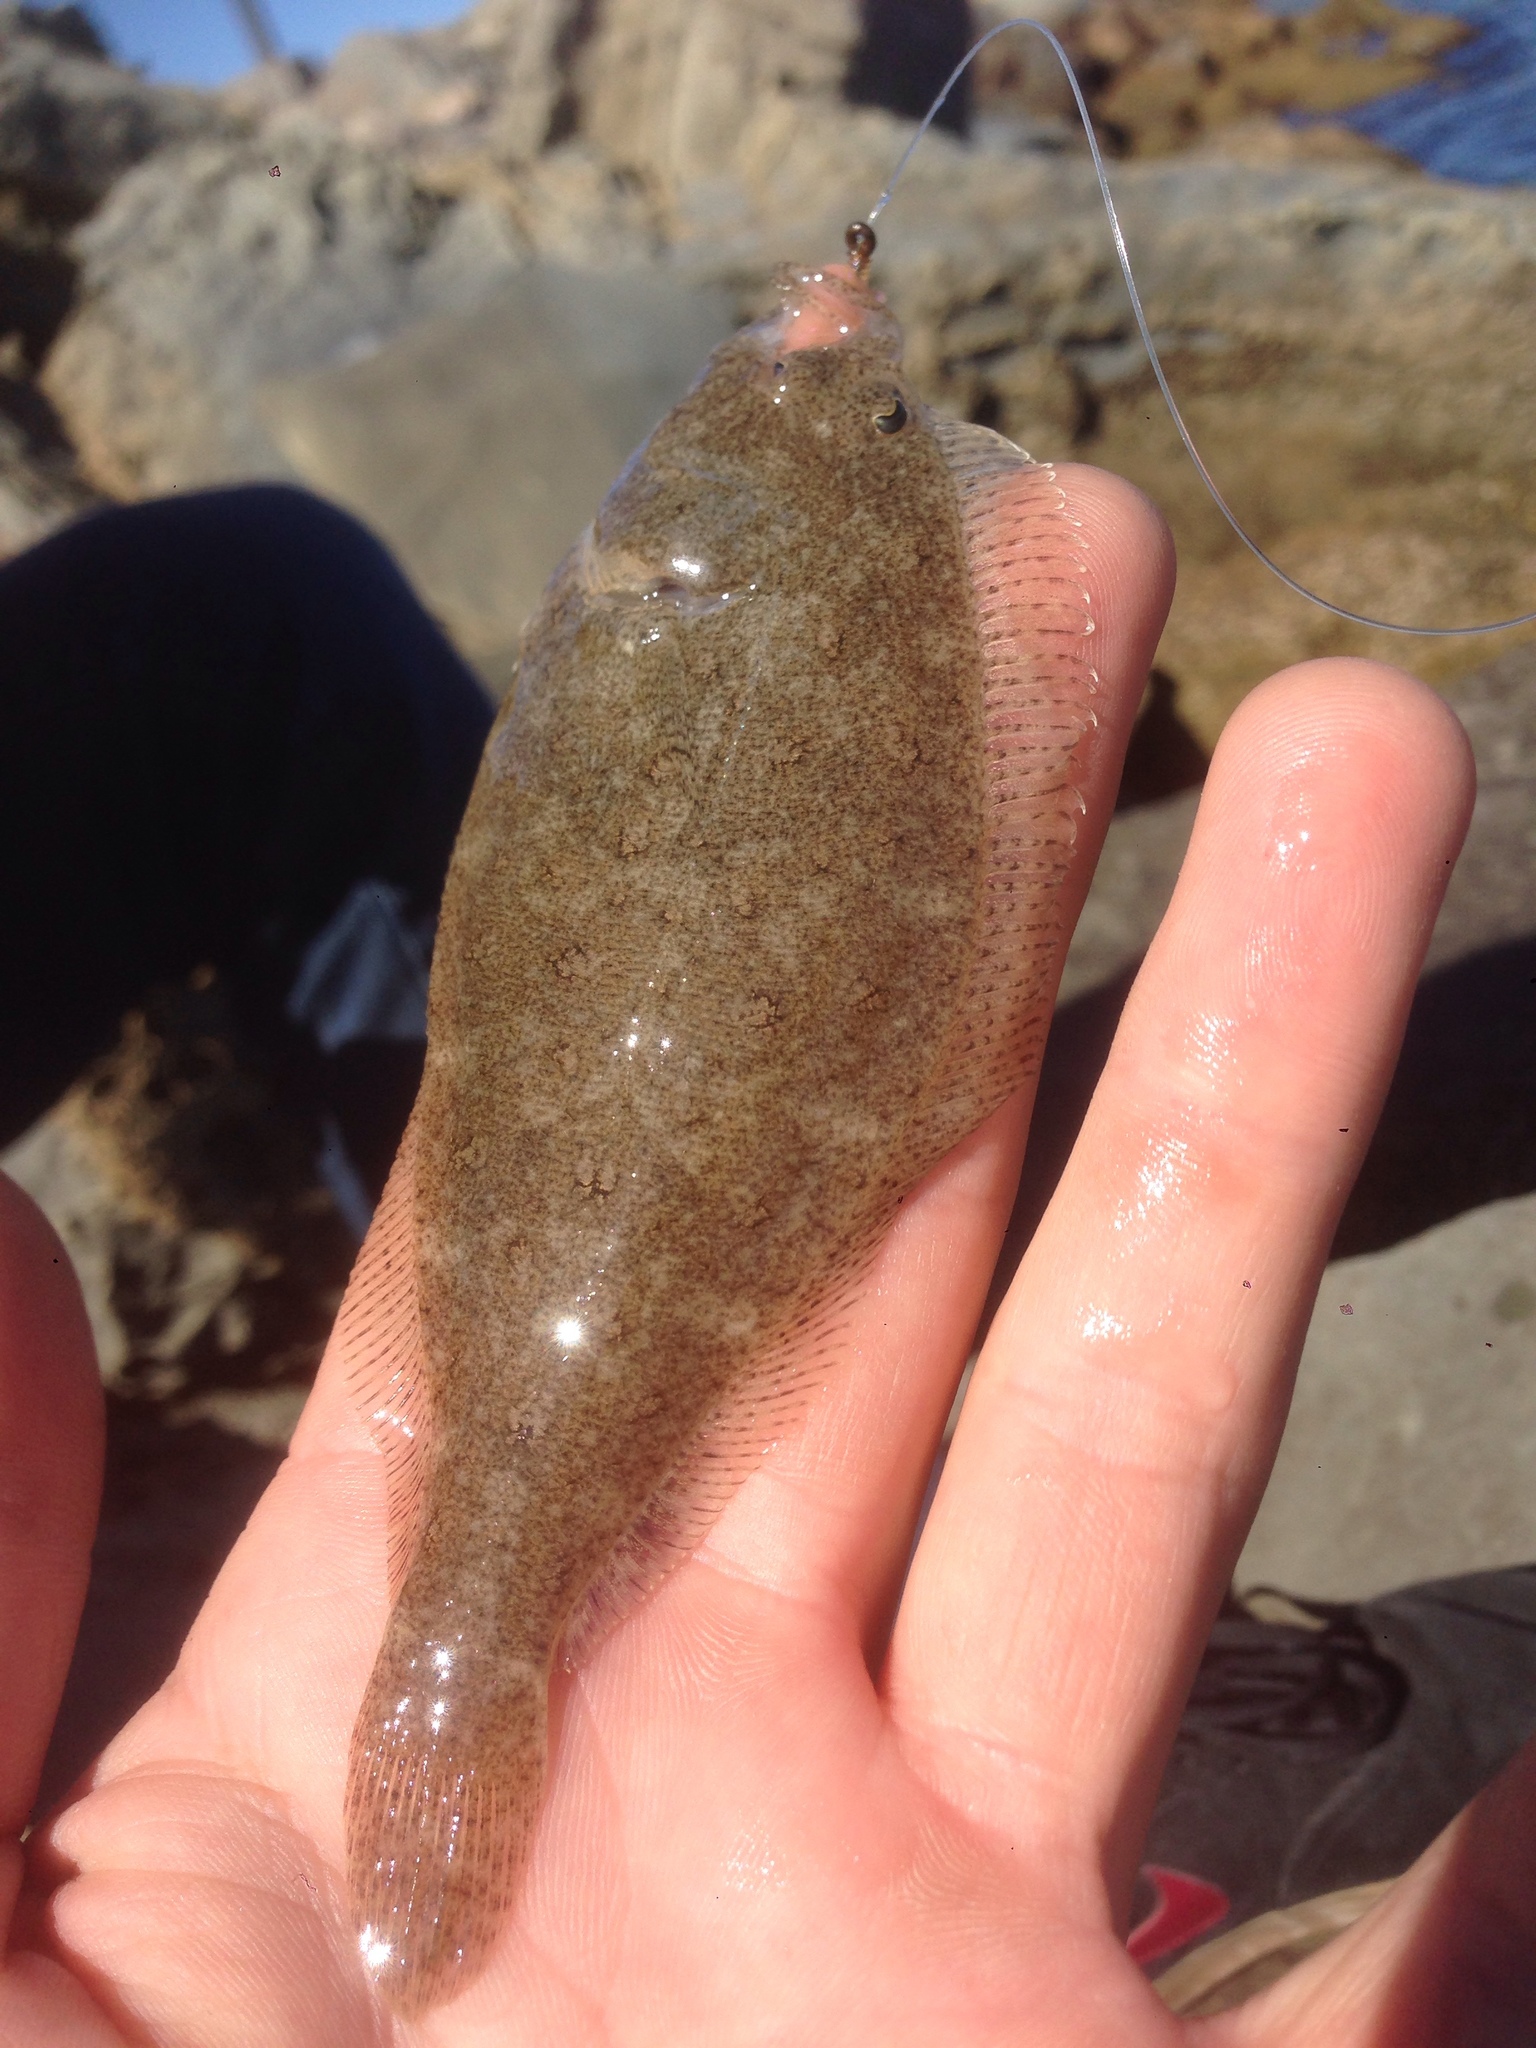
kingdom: Animalia
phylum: Chordata
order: Pleuronectiformes
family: Paralichthyidae
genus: Citharichthys
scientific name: Citharichthys stigmaeus
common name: Speckled sanddab
